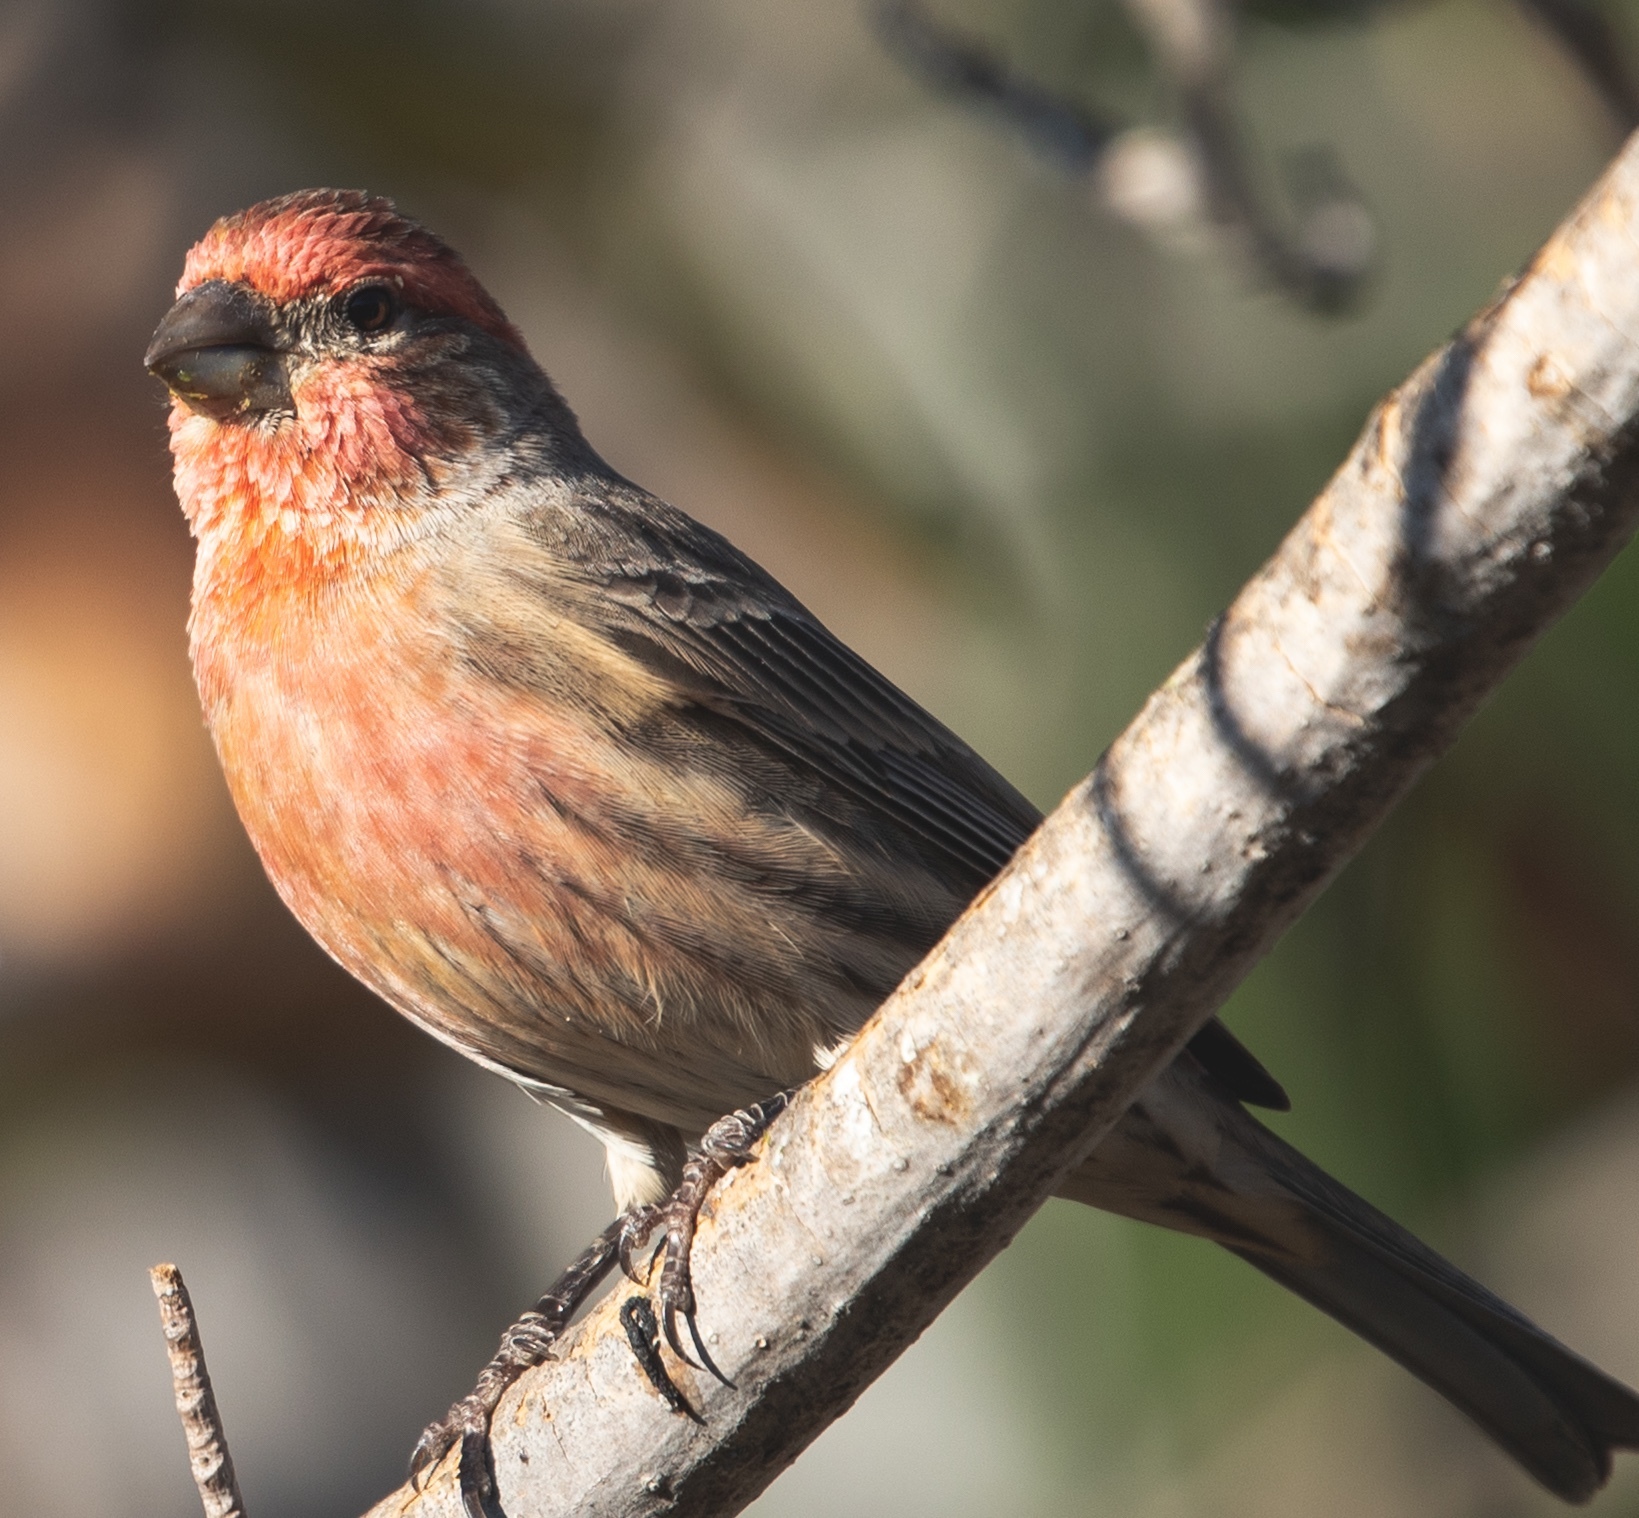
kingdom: Animalia
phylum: Chordata
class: Aves
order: Passeriformes
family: Fringillidae
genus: Haemorhous
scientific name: Haemorhous mexicanus
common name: House finch
